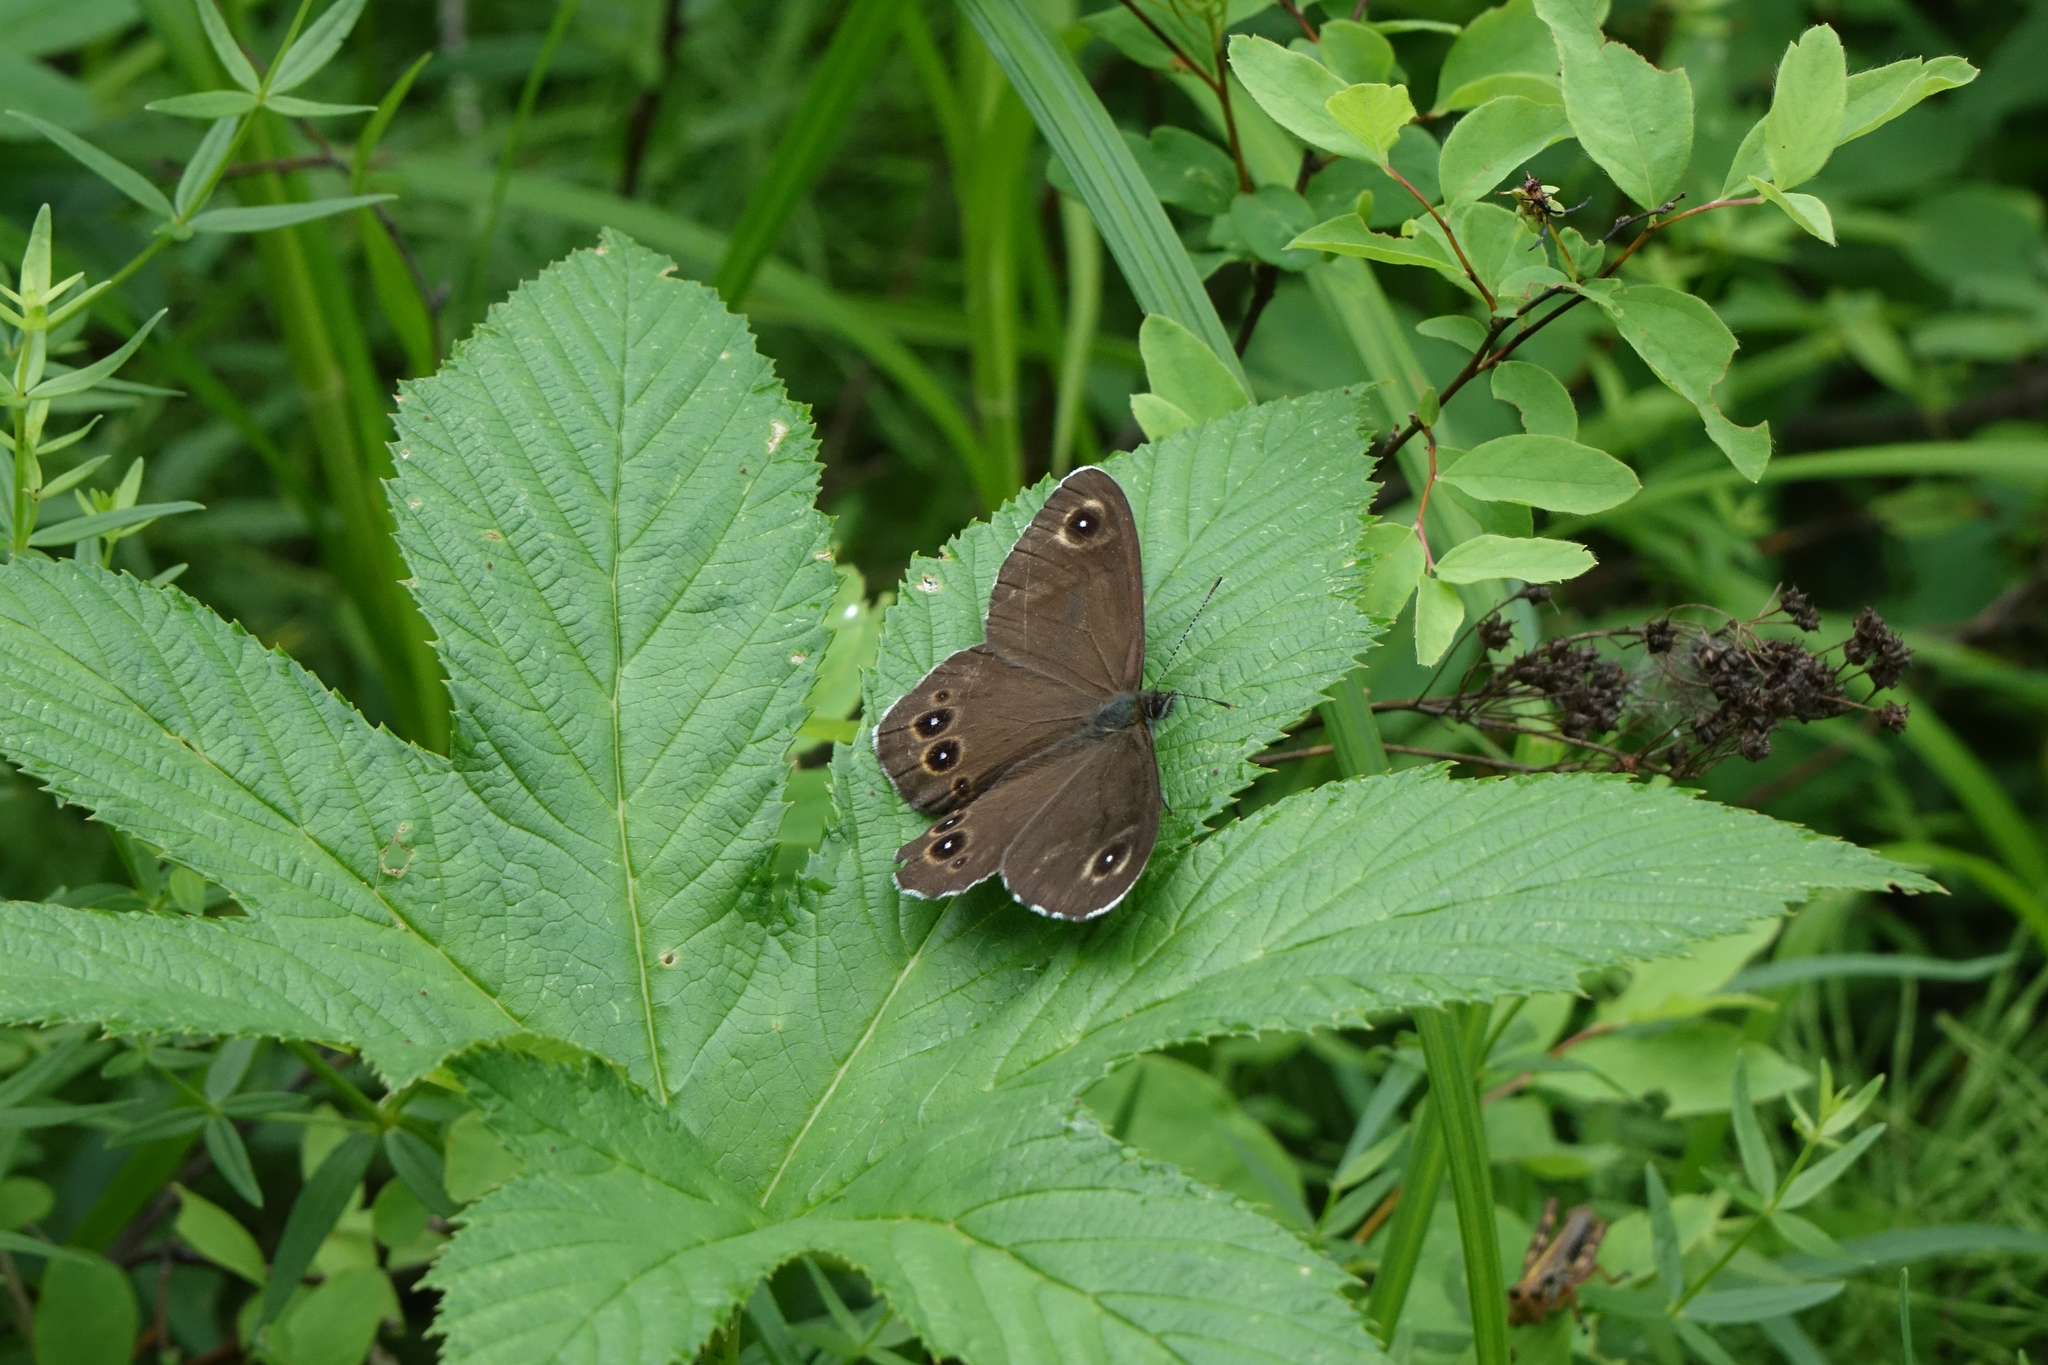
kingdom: Plantae
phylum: Tracheophyta
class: Magnoliopsida
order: Rosales
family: Rosaceae
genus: Filipendula
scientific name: Filipendula digitata
